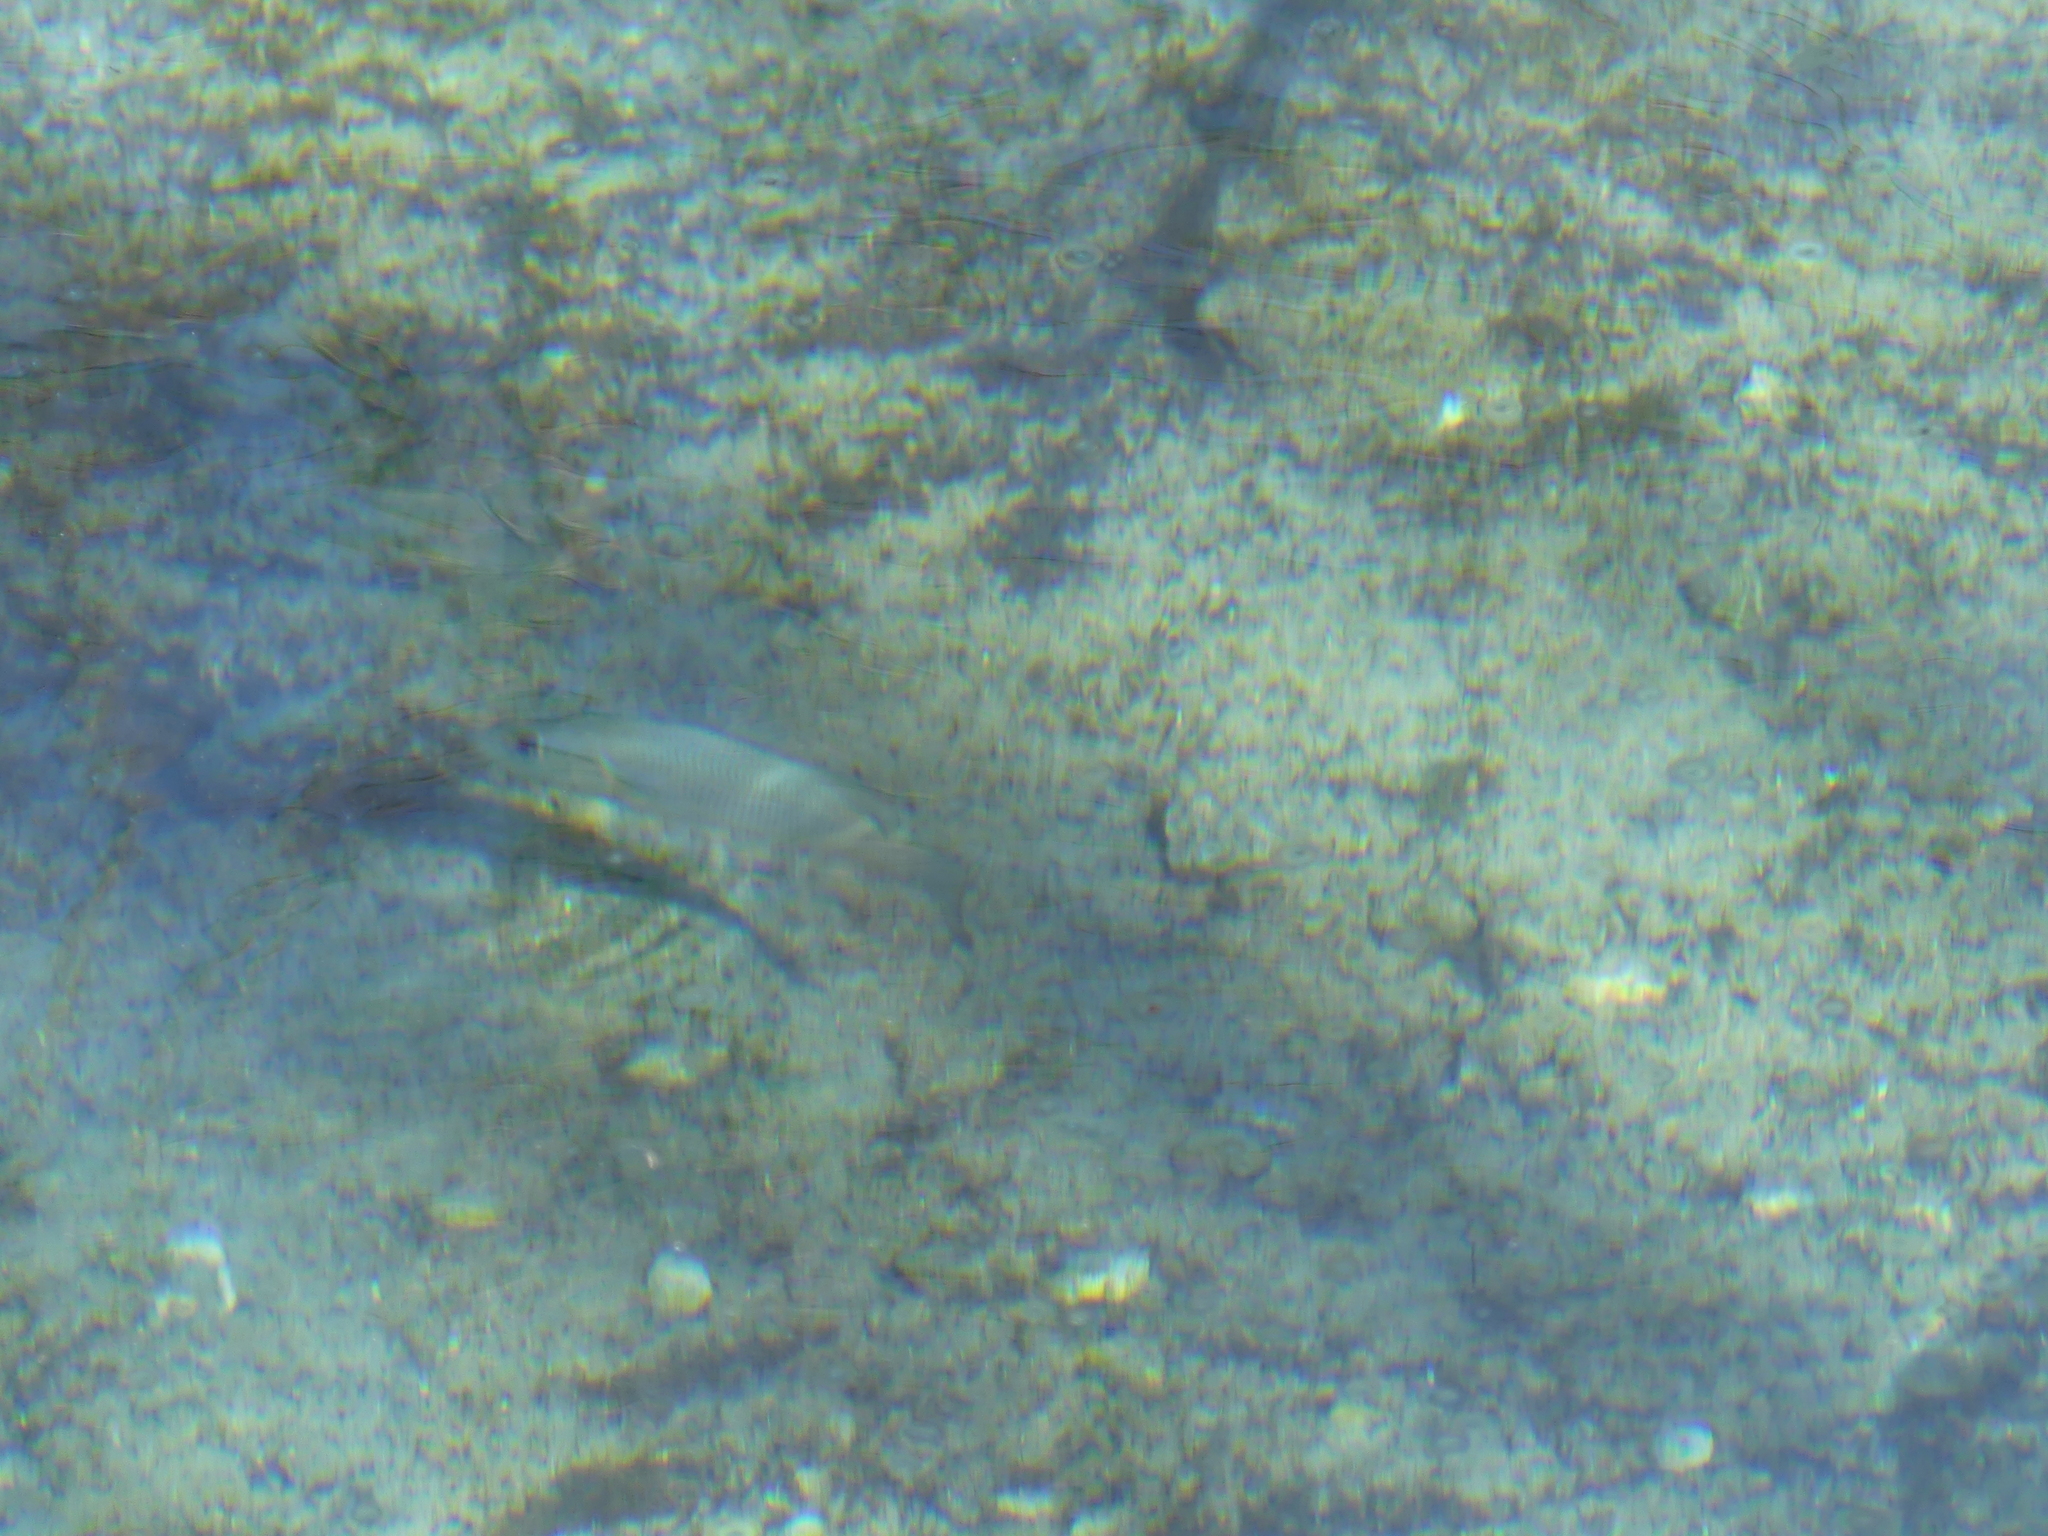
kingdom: Animalia
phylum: Chordata
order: Perciformes
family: Lutjanidae
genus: Lutjanus
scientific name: Lutjanus griseus
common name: Gray snapper
